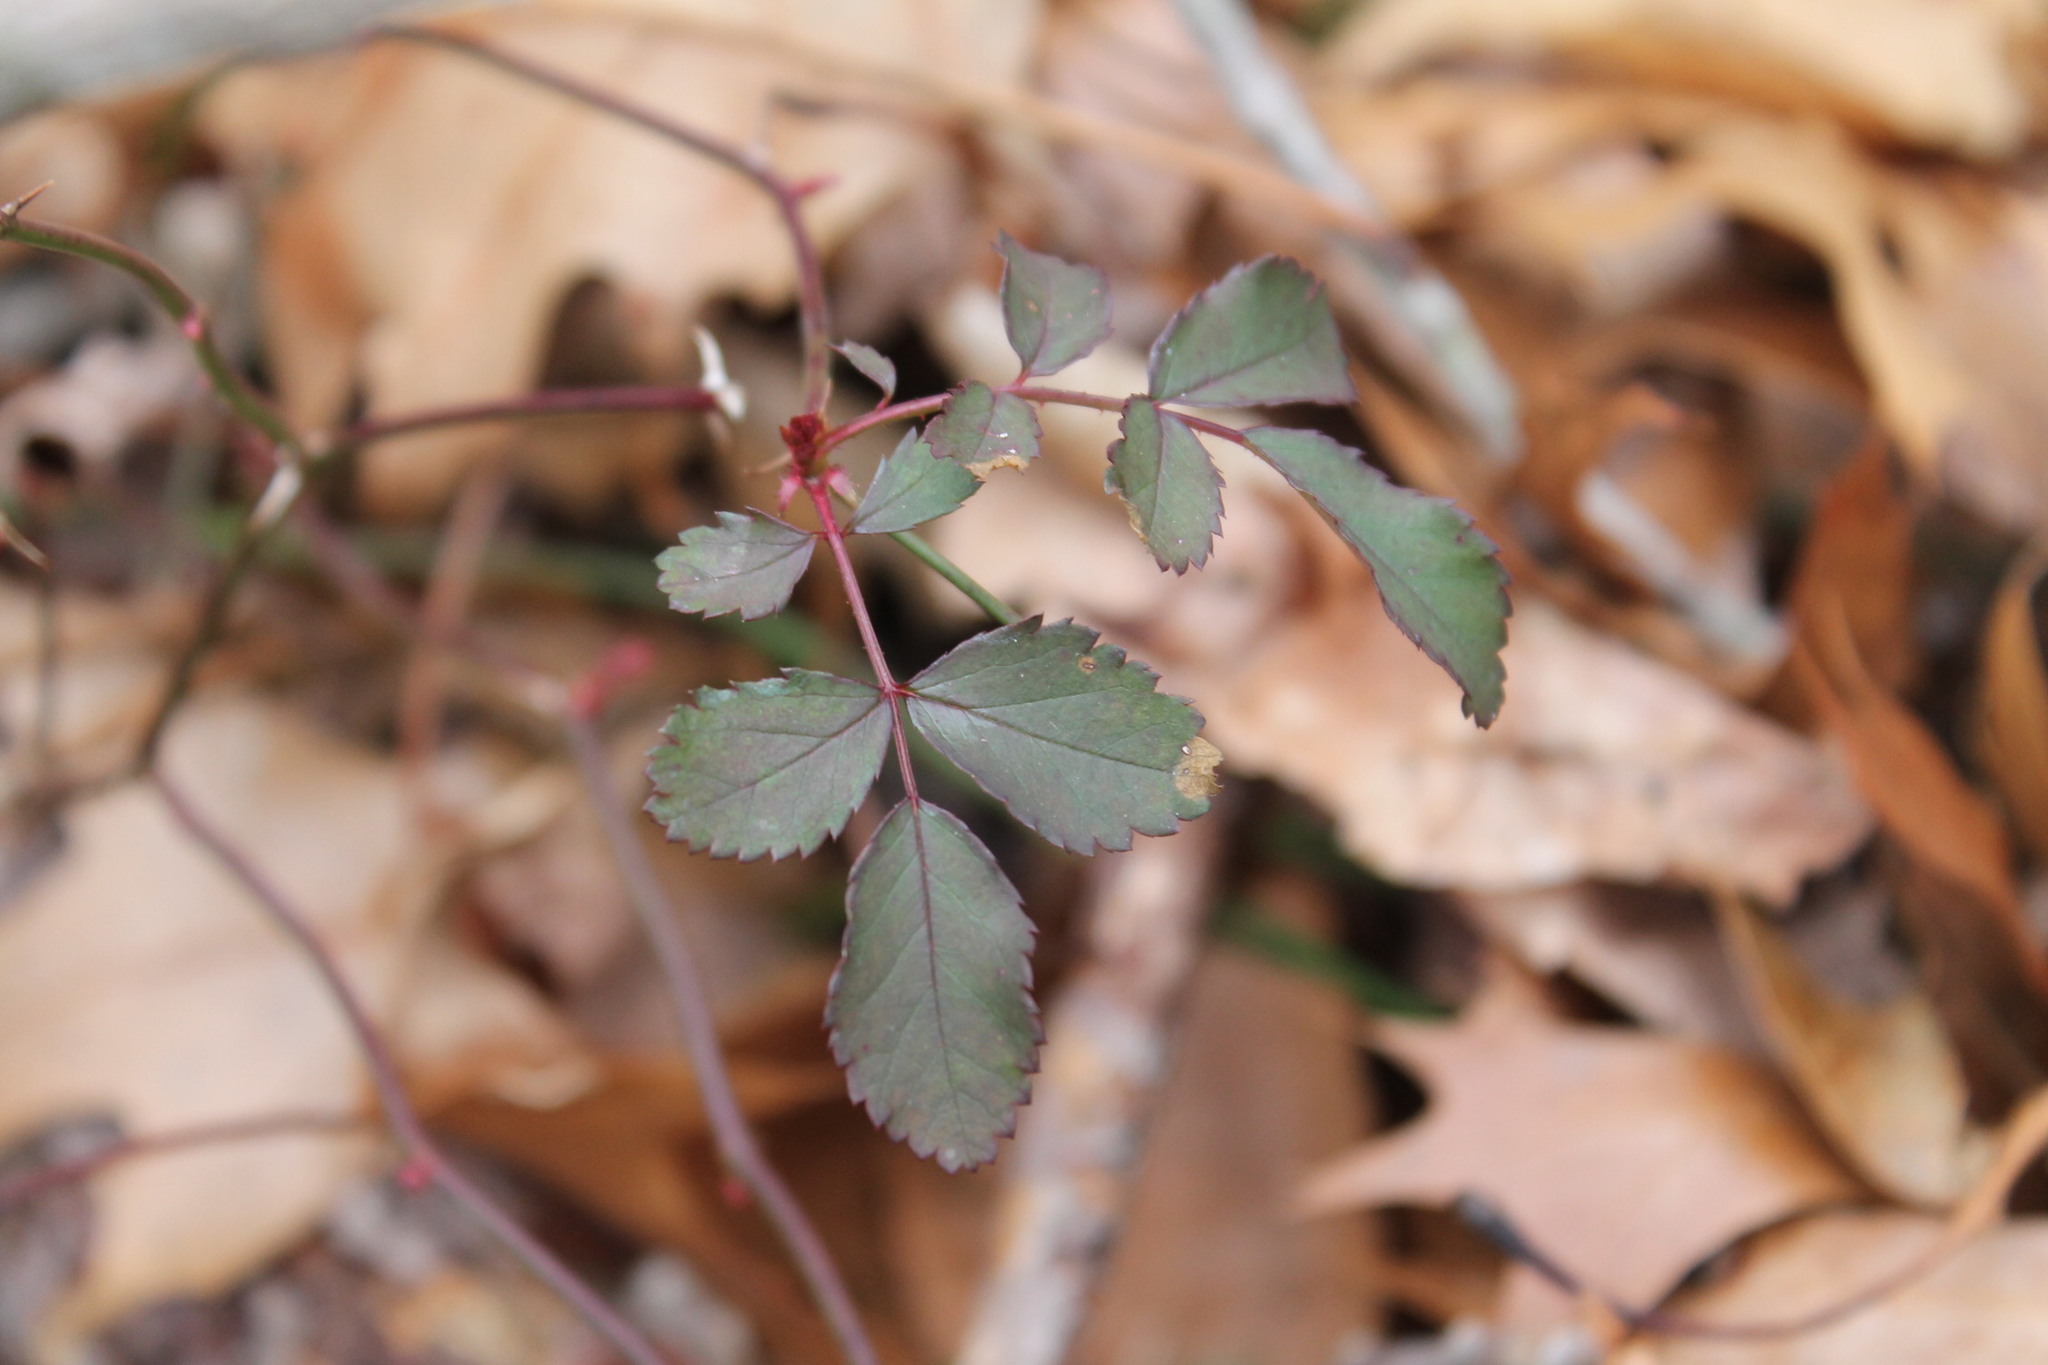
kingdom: Plantae
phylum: Tracheophyta
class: Magnoliopsida
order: Rosales
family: Rosaceae
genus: Rosa
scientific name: Rosa multiflora
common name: Multiflora rose
